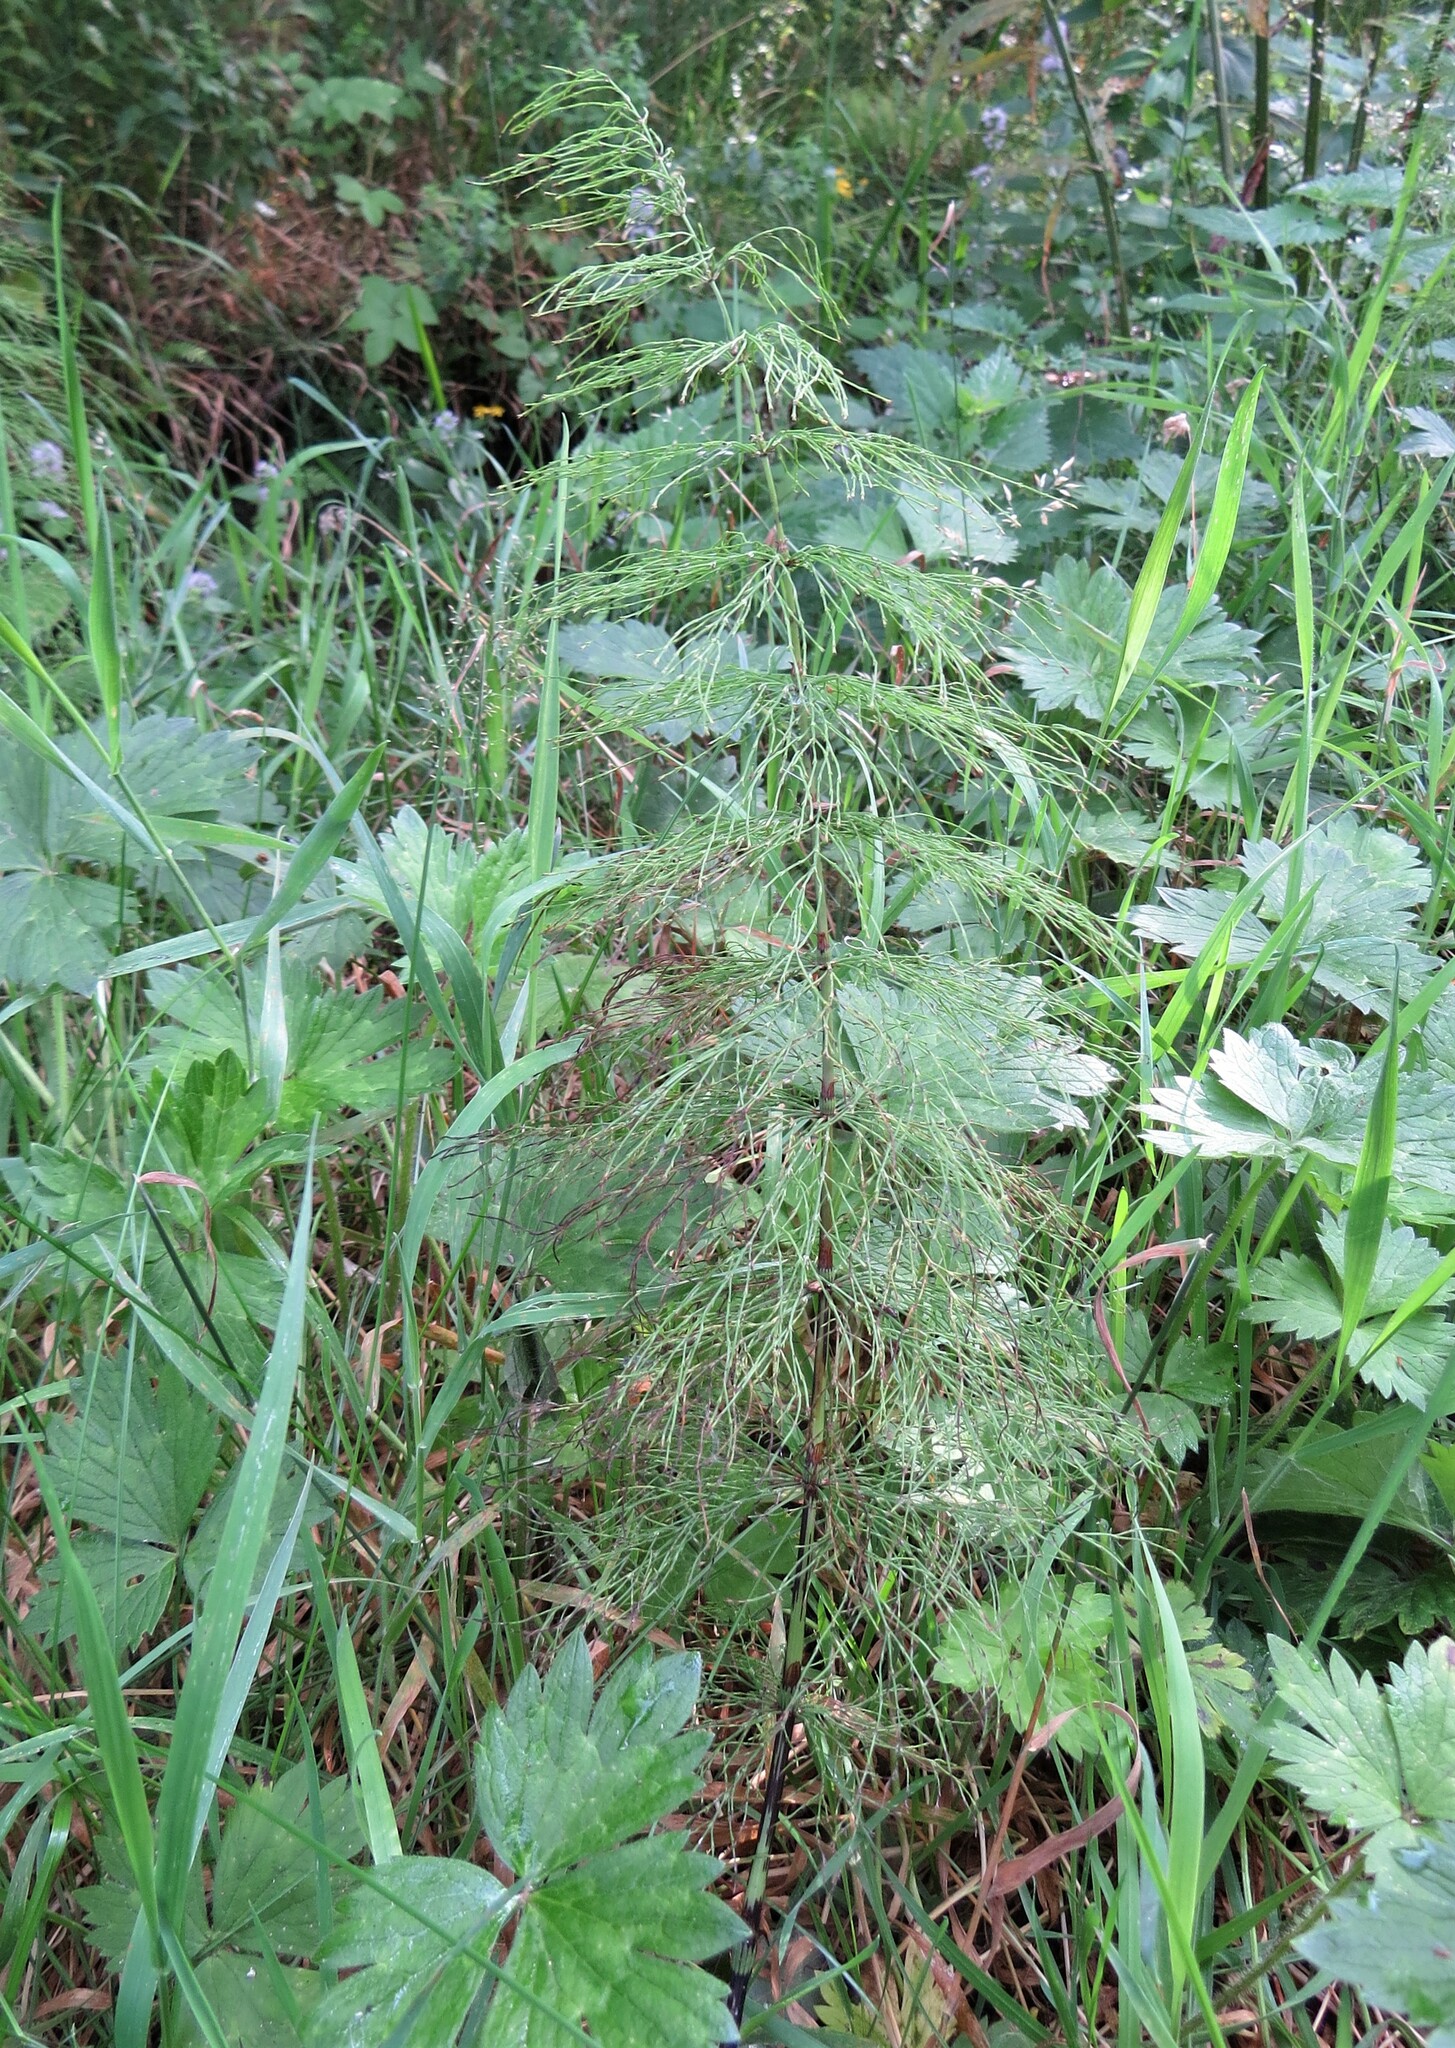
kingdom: Plantae
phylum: Tracheophyta
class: Polypodiopsida
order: Equisetales
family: Equisetaceae
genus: Equisetum
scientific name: Equisetum sylvaticum
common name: Wood horsetail
